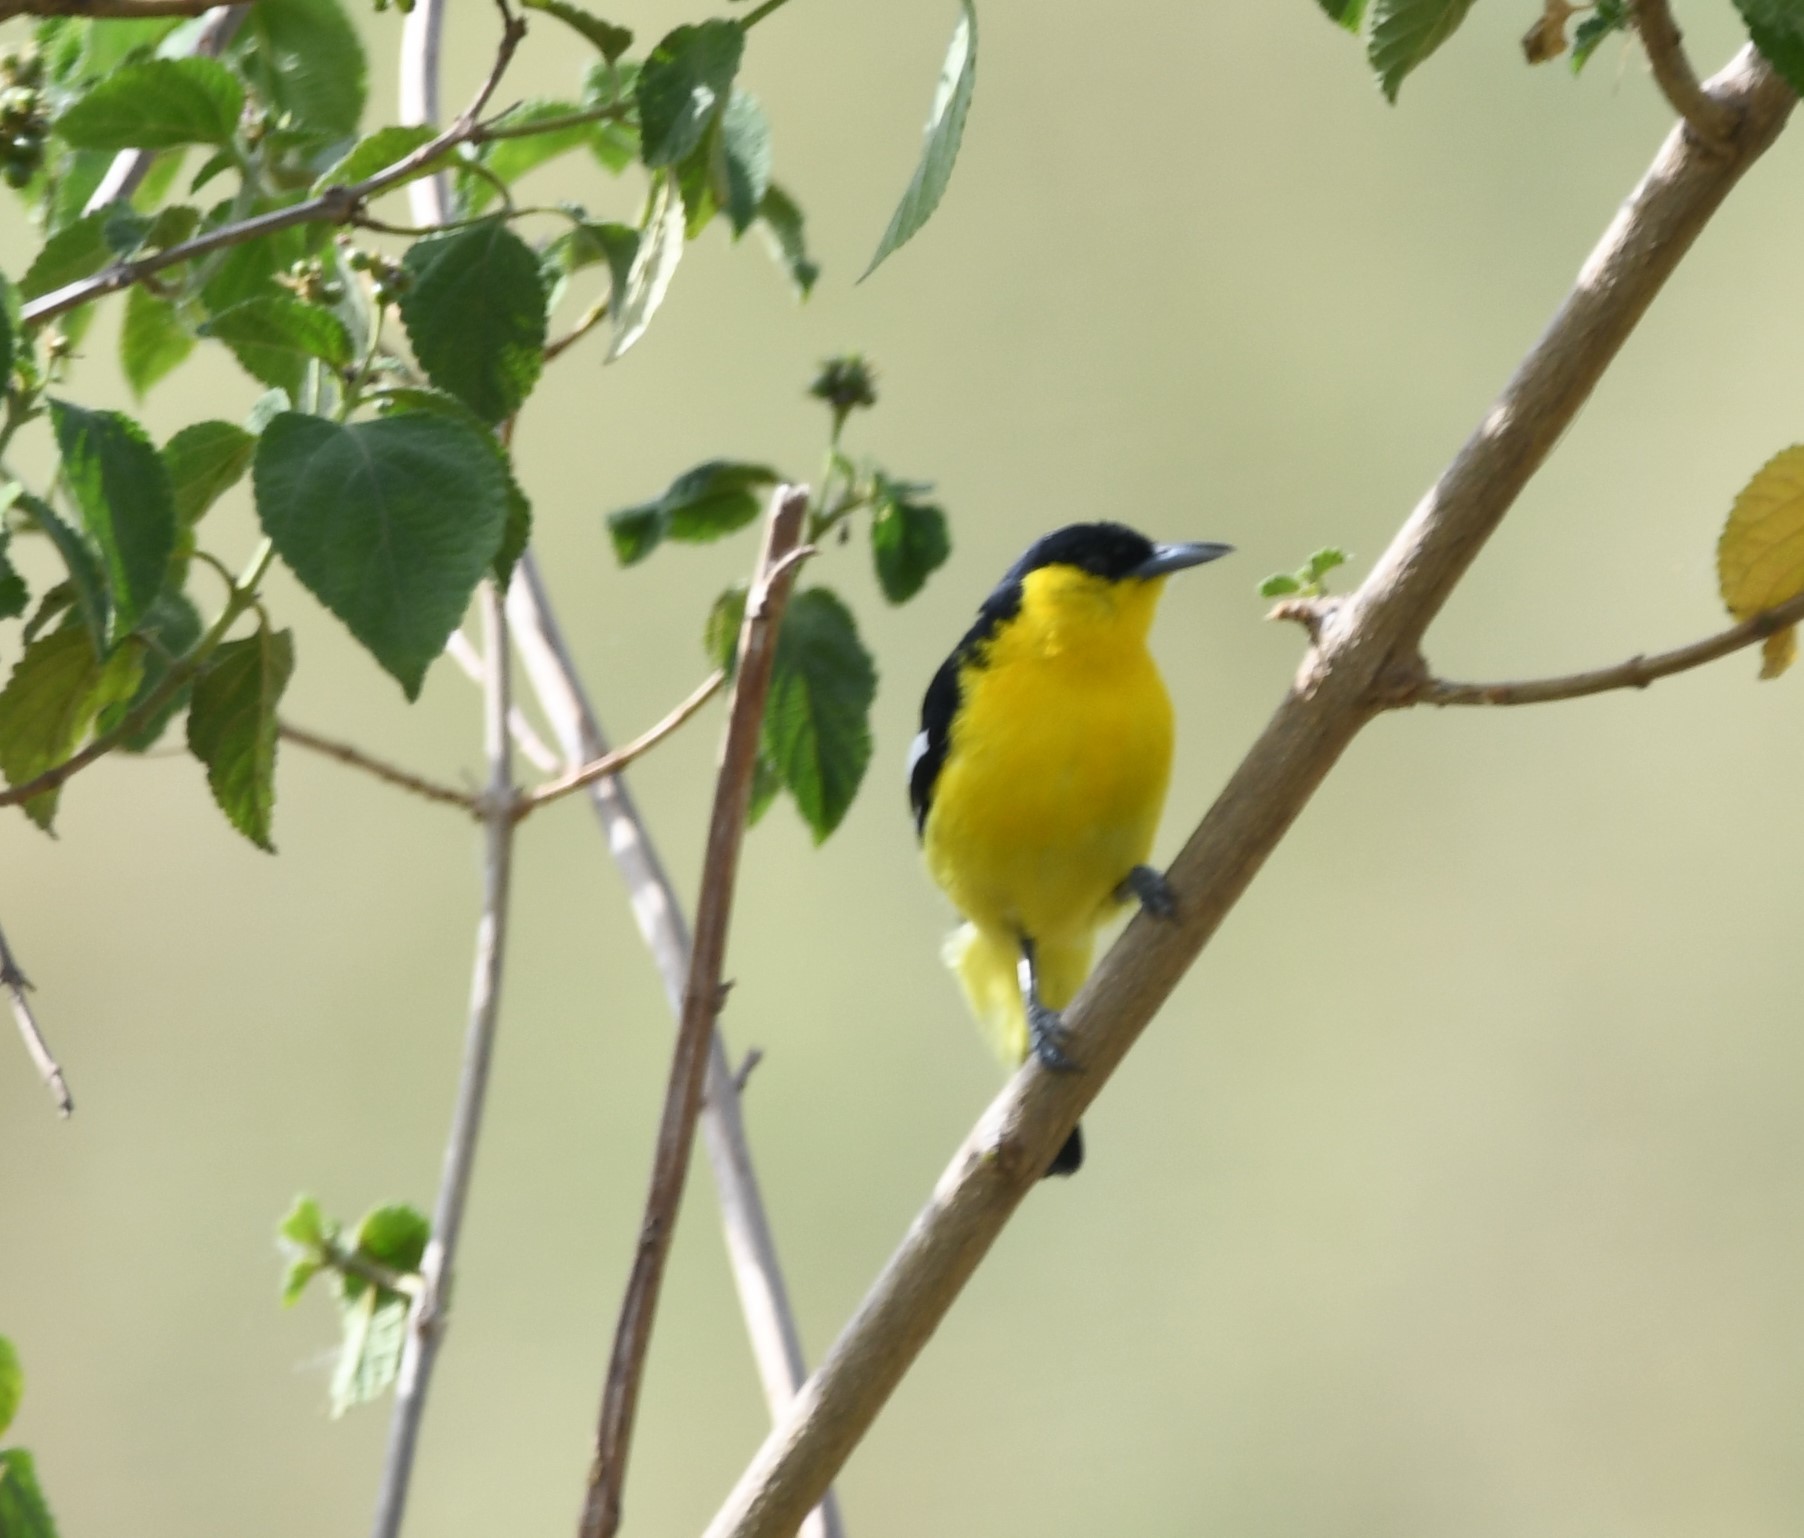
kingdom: Animalia
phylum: Chordata
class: Aves
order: Passeriformes
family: Aegithinidae
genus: Aegithina
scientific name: Aegithina tiphia
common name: Common iora
